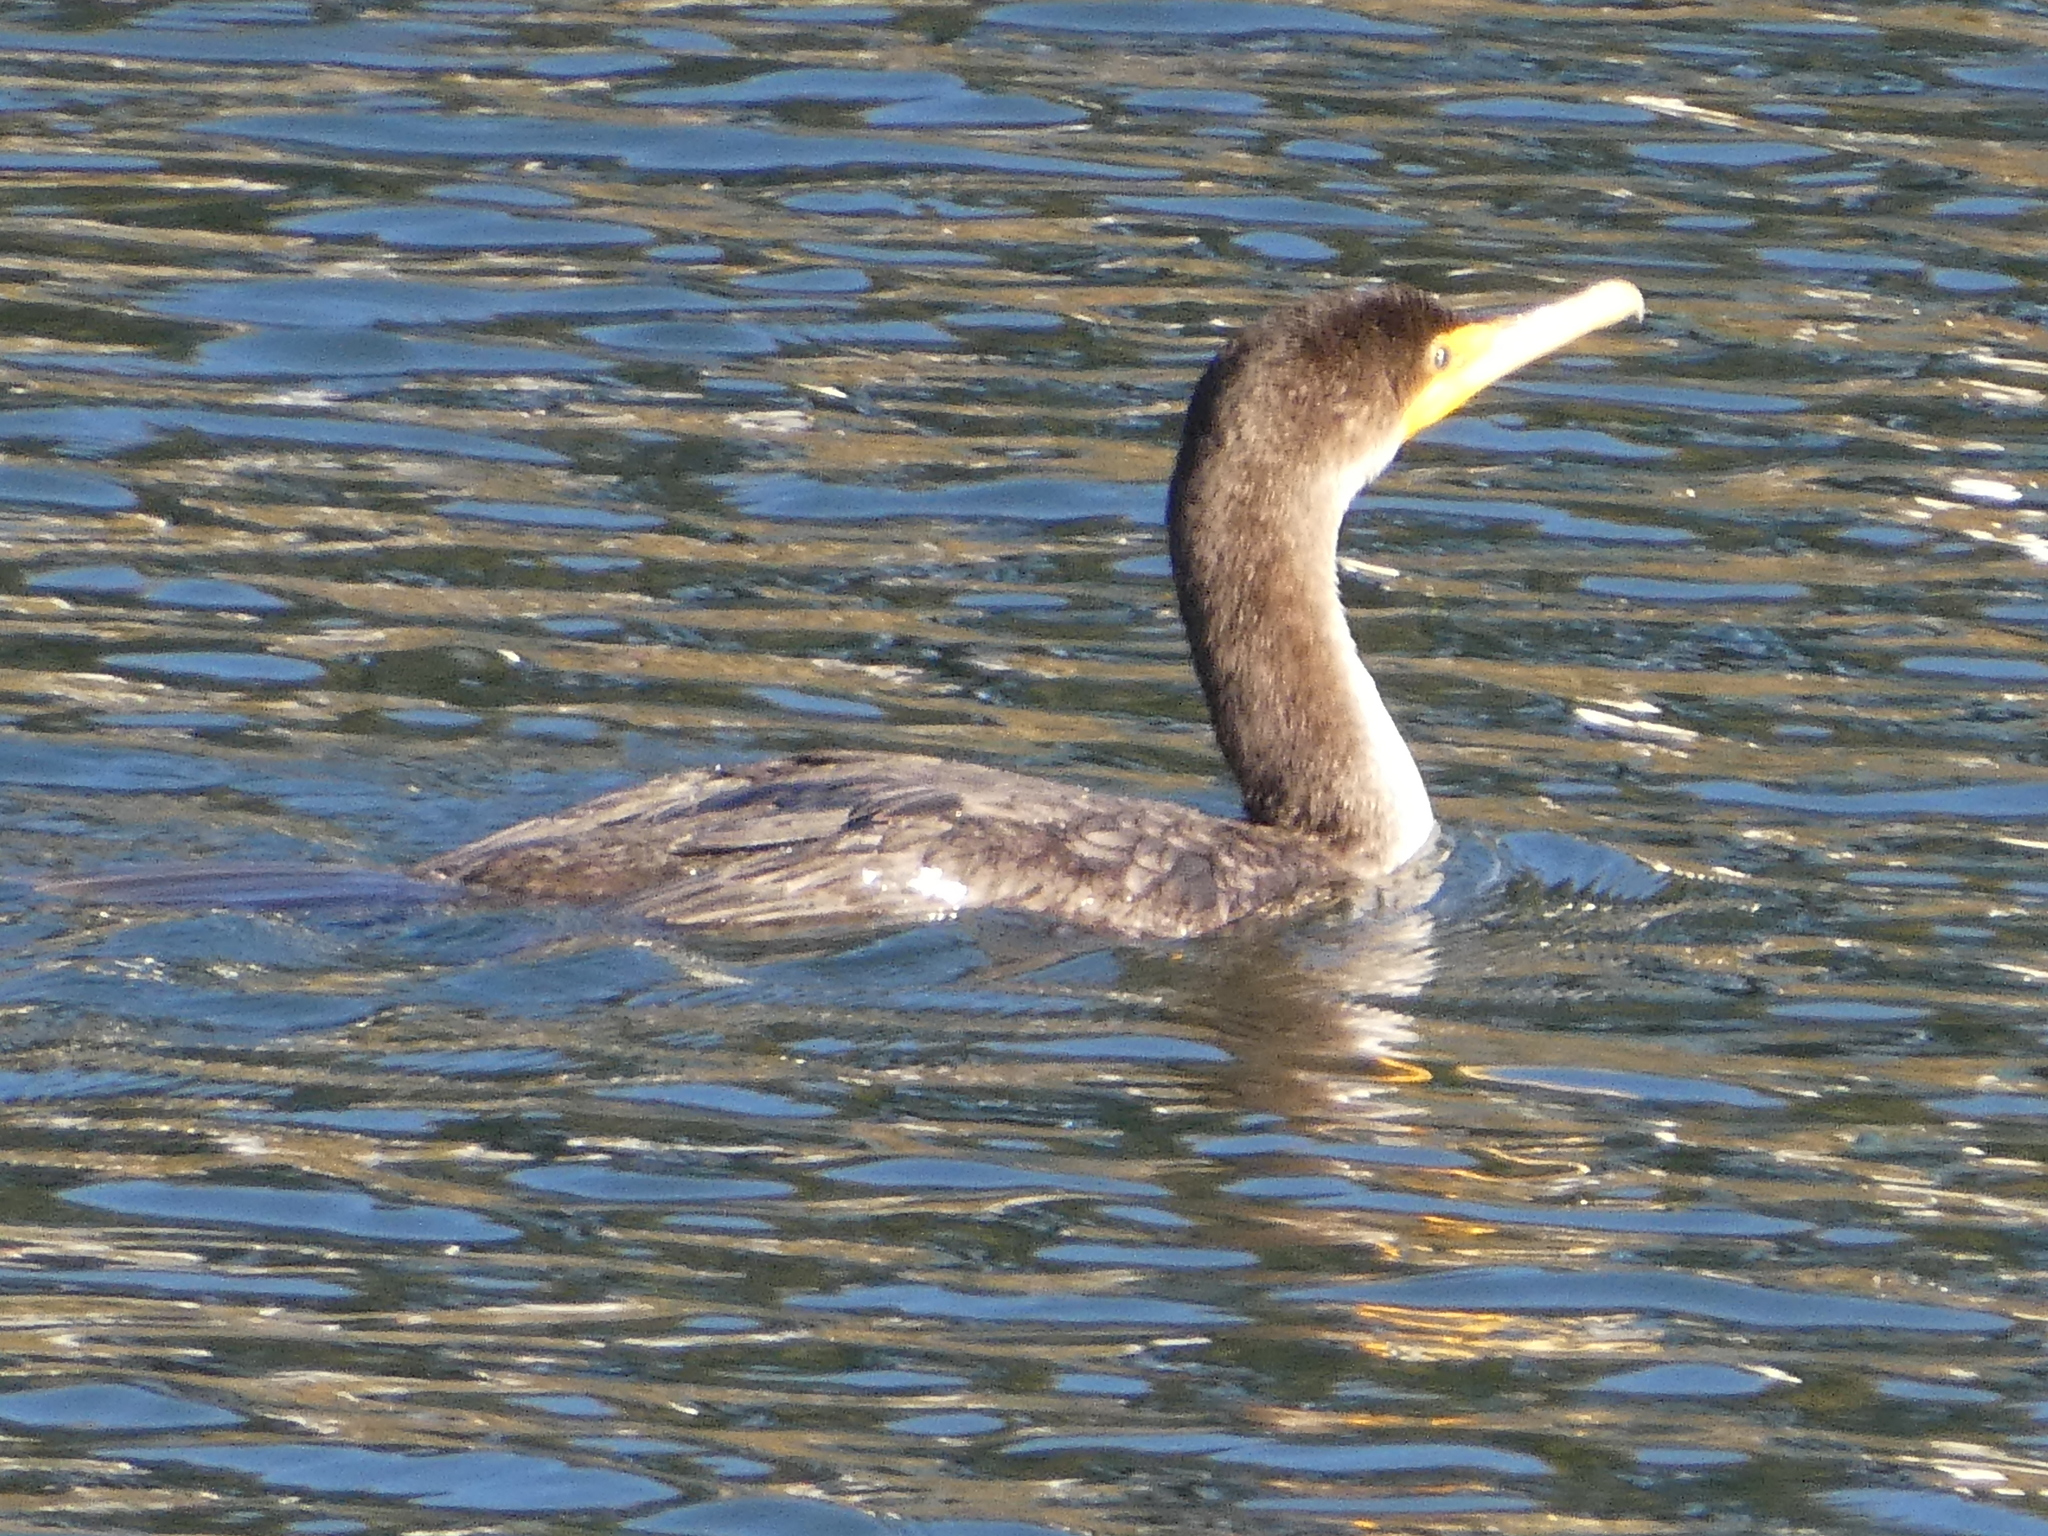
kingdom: Animalia
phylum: Chordata
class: Aves
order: Suliformes
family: Phalacrocoracidae
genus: Phalacrocorax
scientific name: Phalacrocorax auritus
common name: Double-crested cormorant
